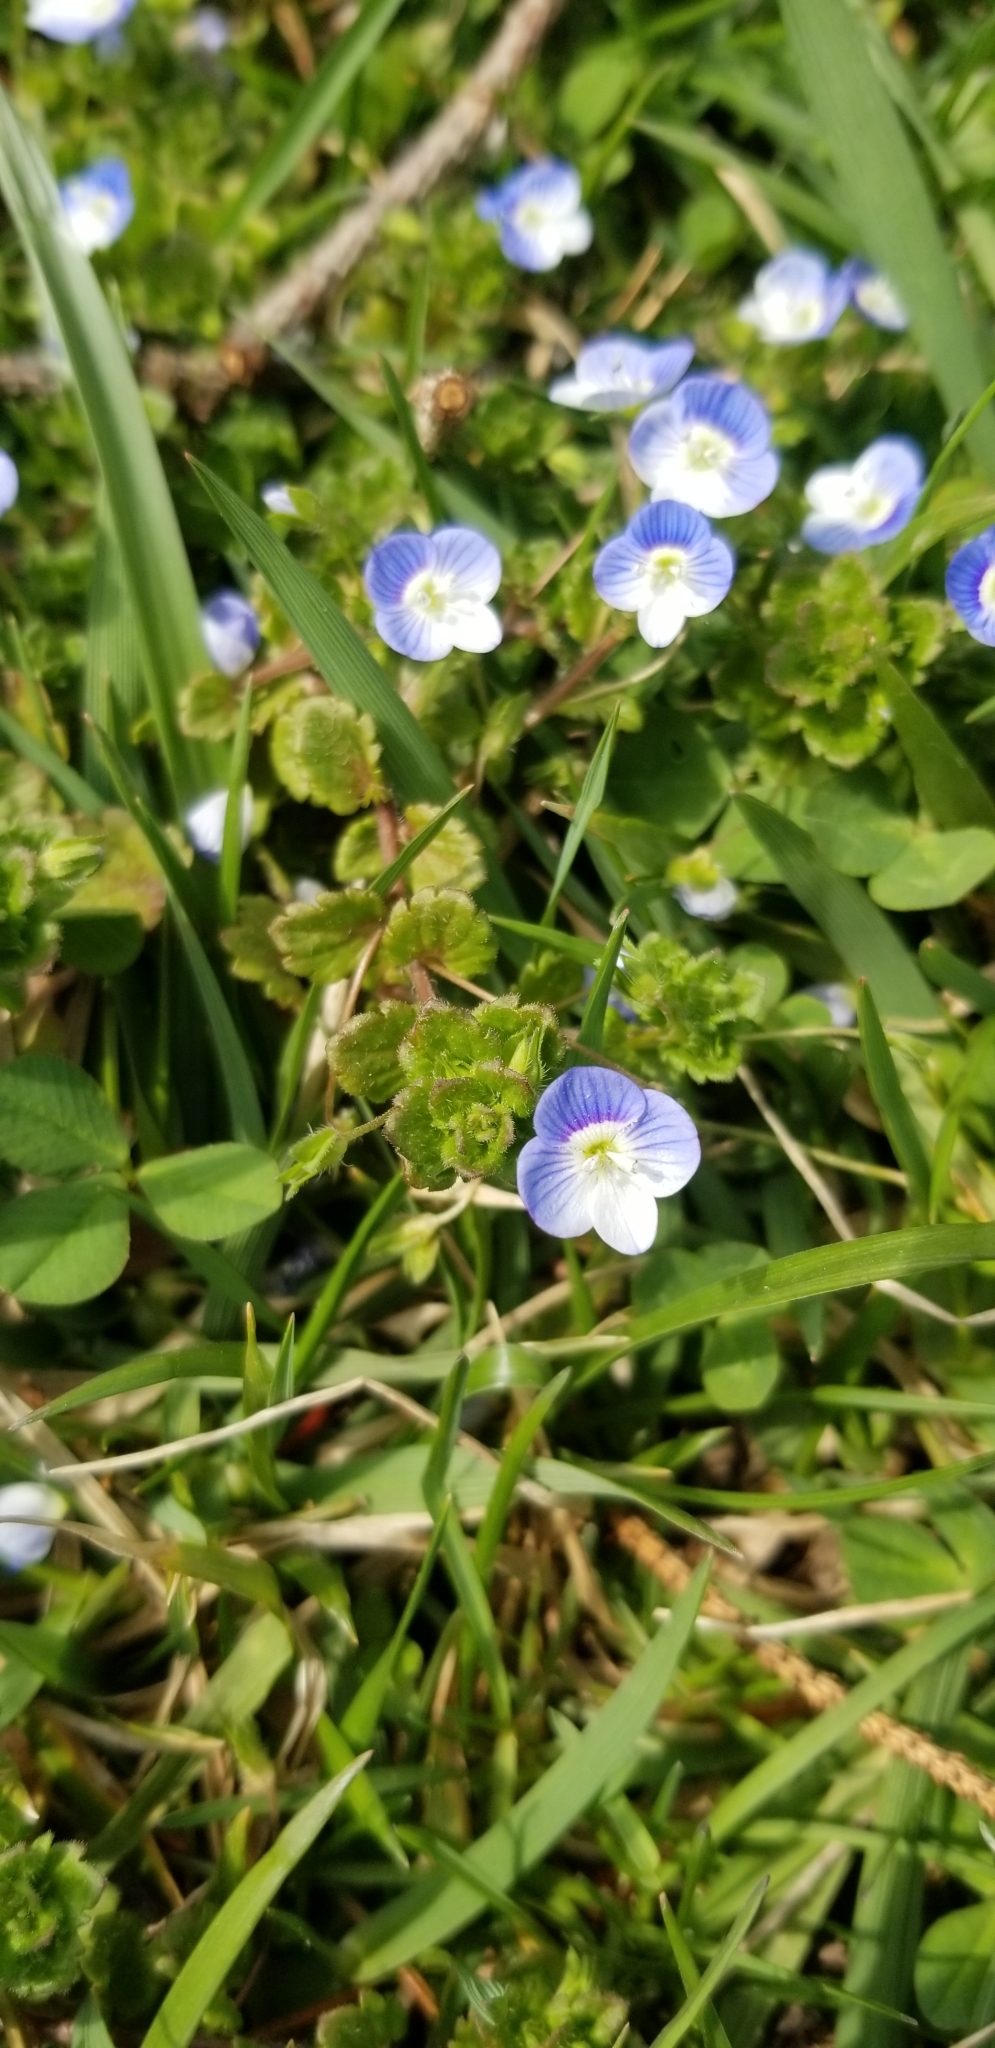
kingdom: Plantae
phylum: Tracheophyta
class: Magnoliopsida
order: Lamiales
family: Plantaginaceae
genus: Veronica
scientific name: Veronica persica
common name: Common field-speedwell
